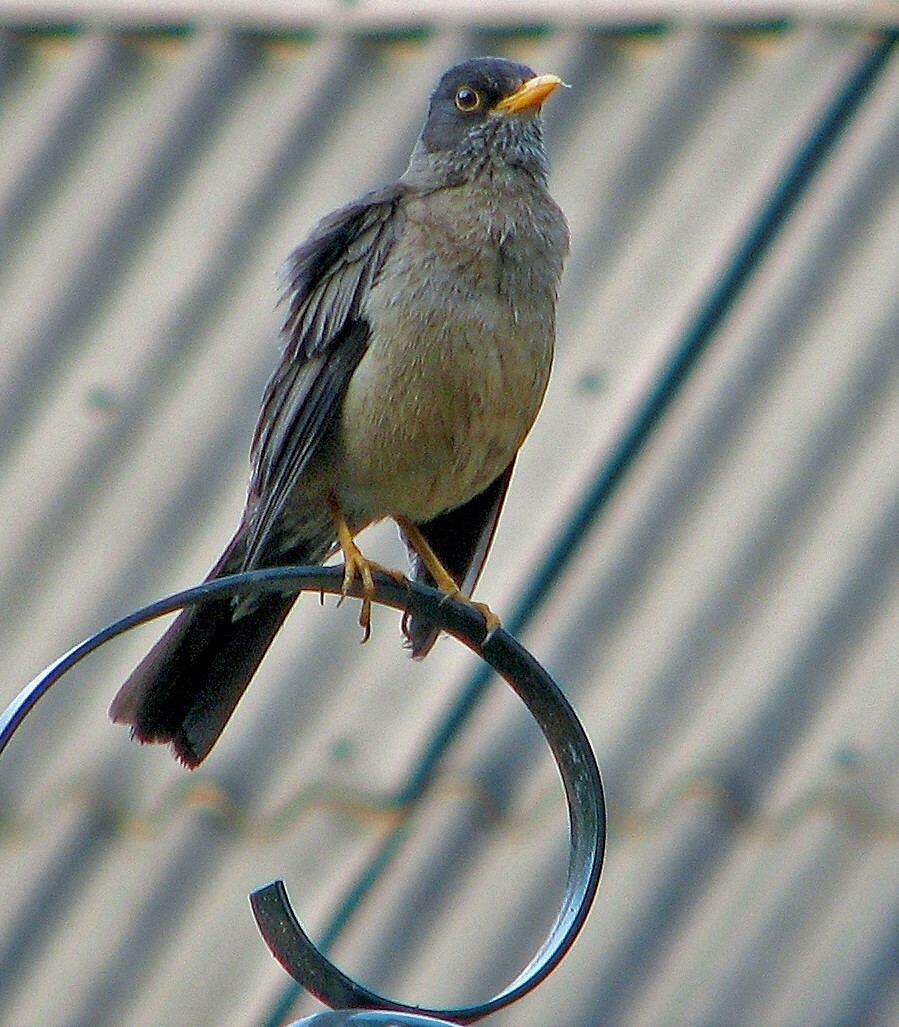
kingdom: Animalia
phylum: Chordata
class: Aves
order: Passeriformes
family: Turdidae
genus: Turdus
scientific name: Turdus falcklandii
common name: Austral thrush
